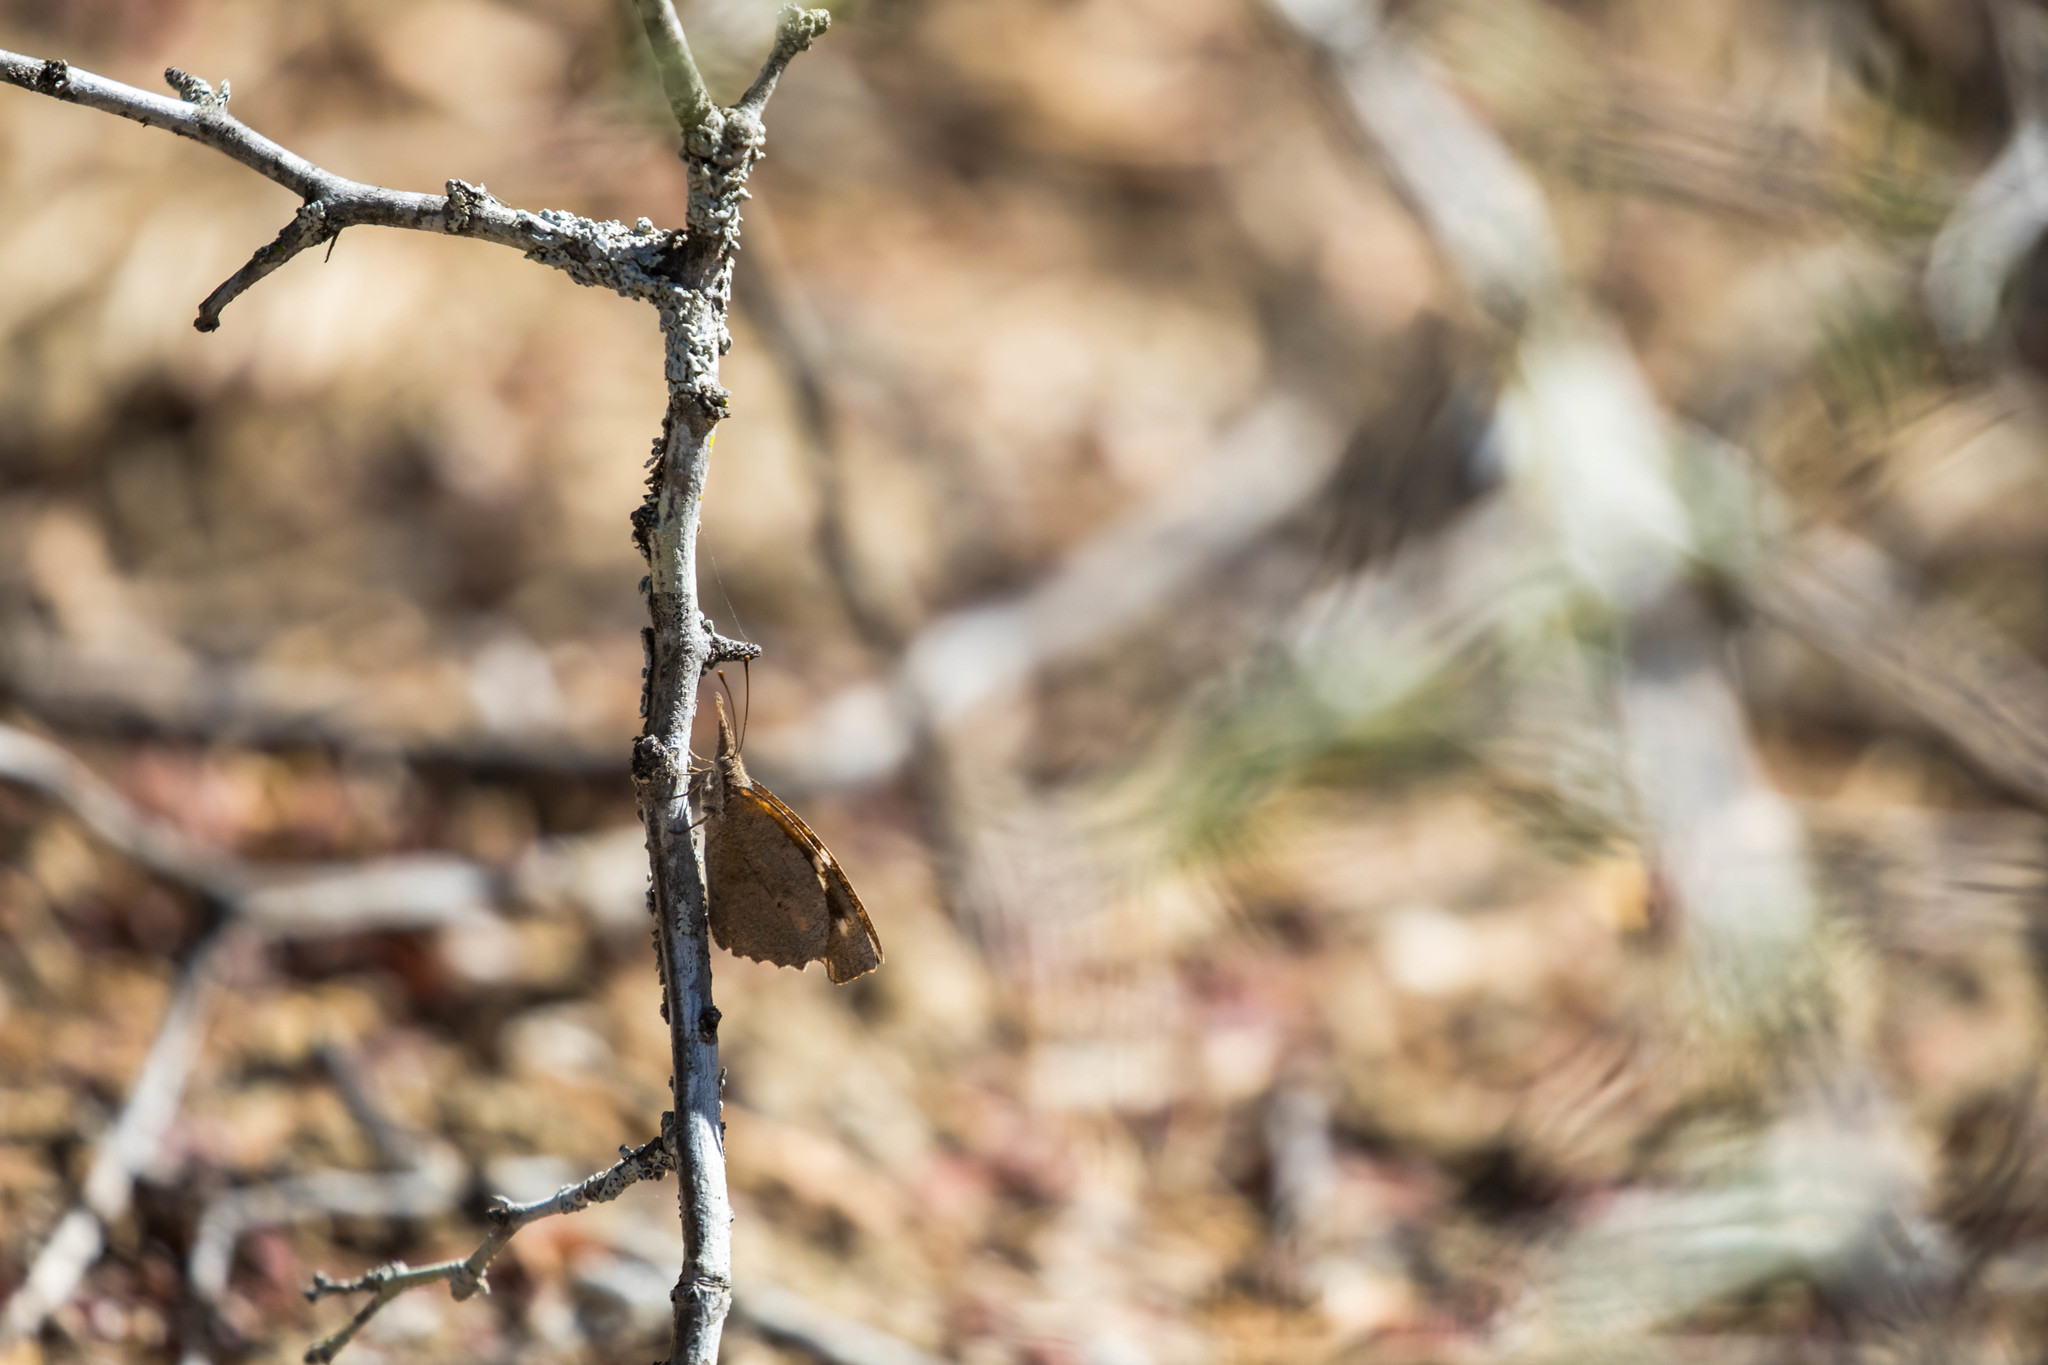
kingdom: Animalia
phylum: Arthropoda
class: Insecta
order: Lepidoptera
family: Nymphalidae
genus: Libytheana
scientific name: Libytheana carinenta
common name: American snout
